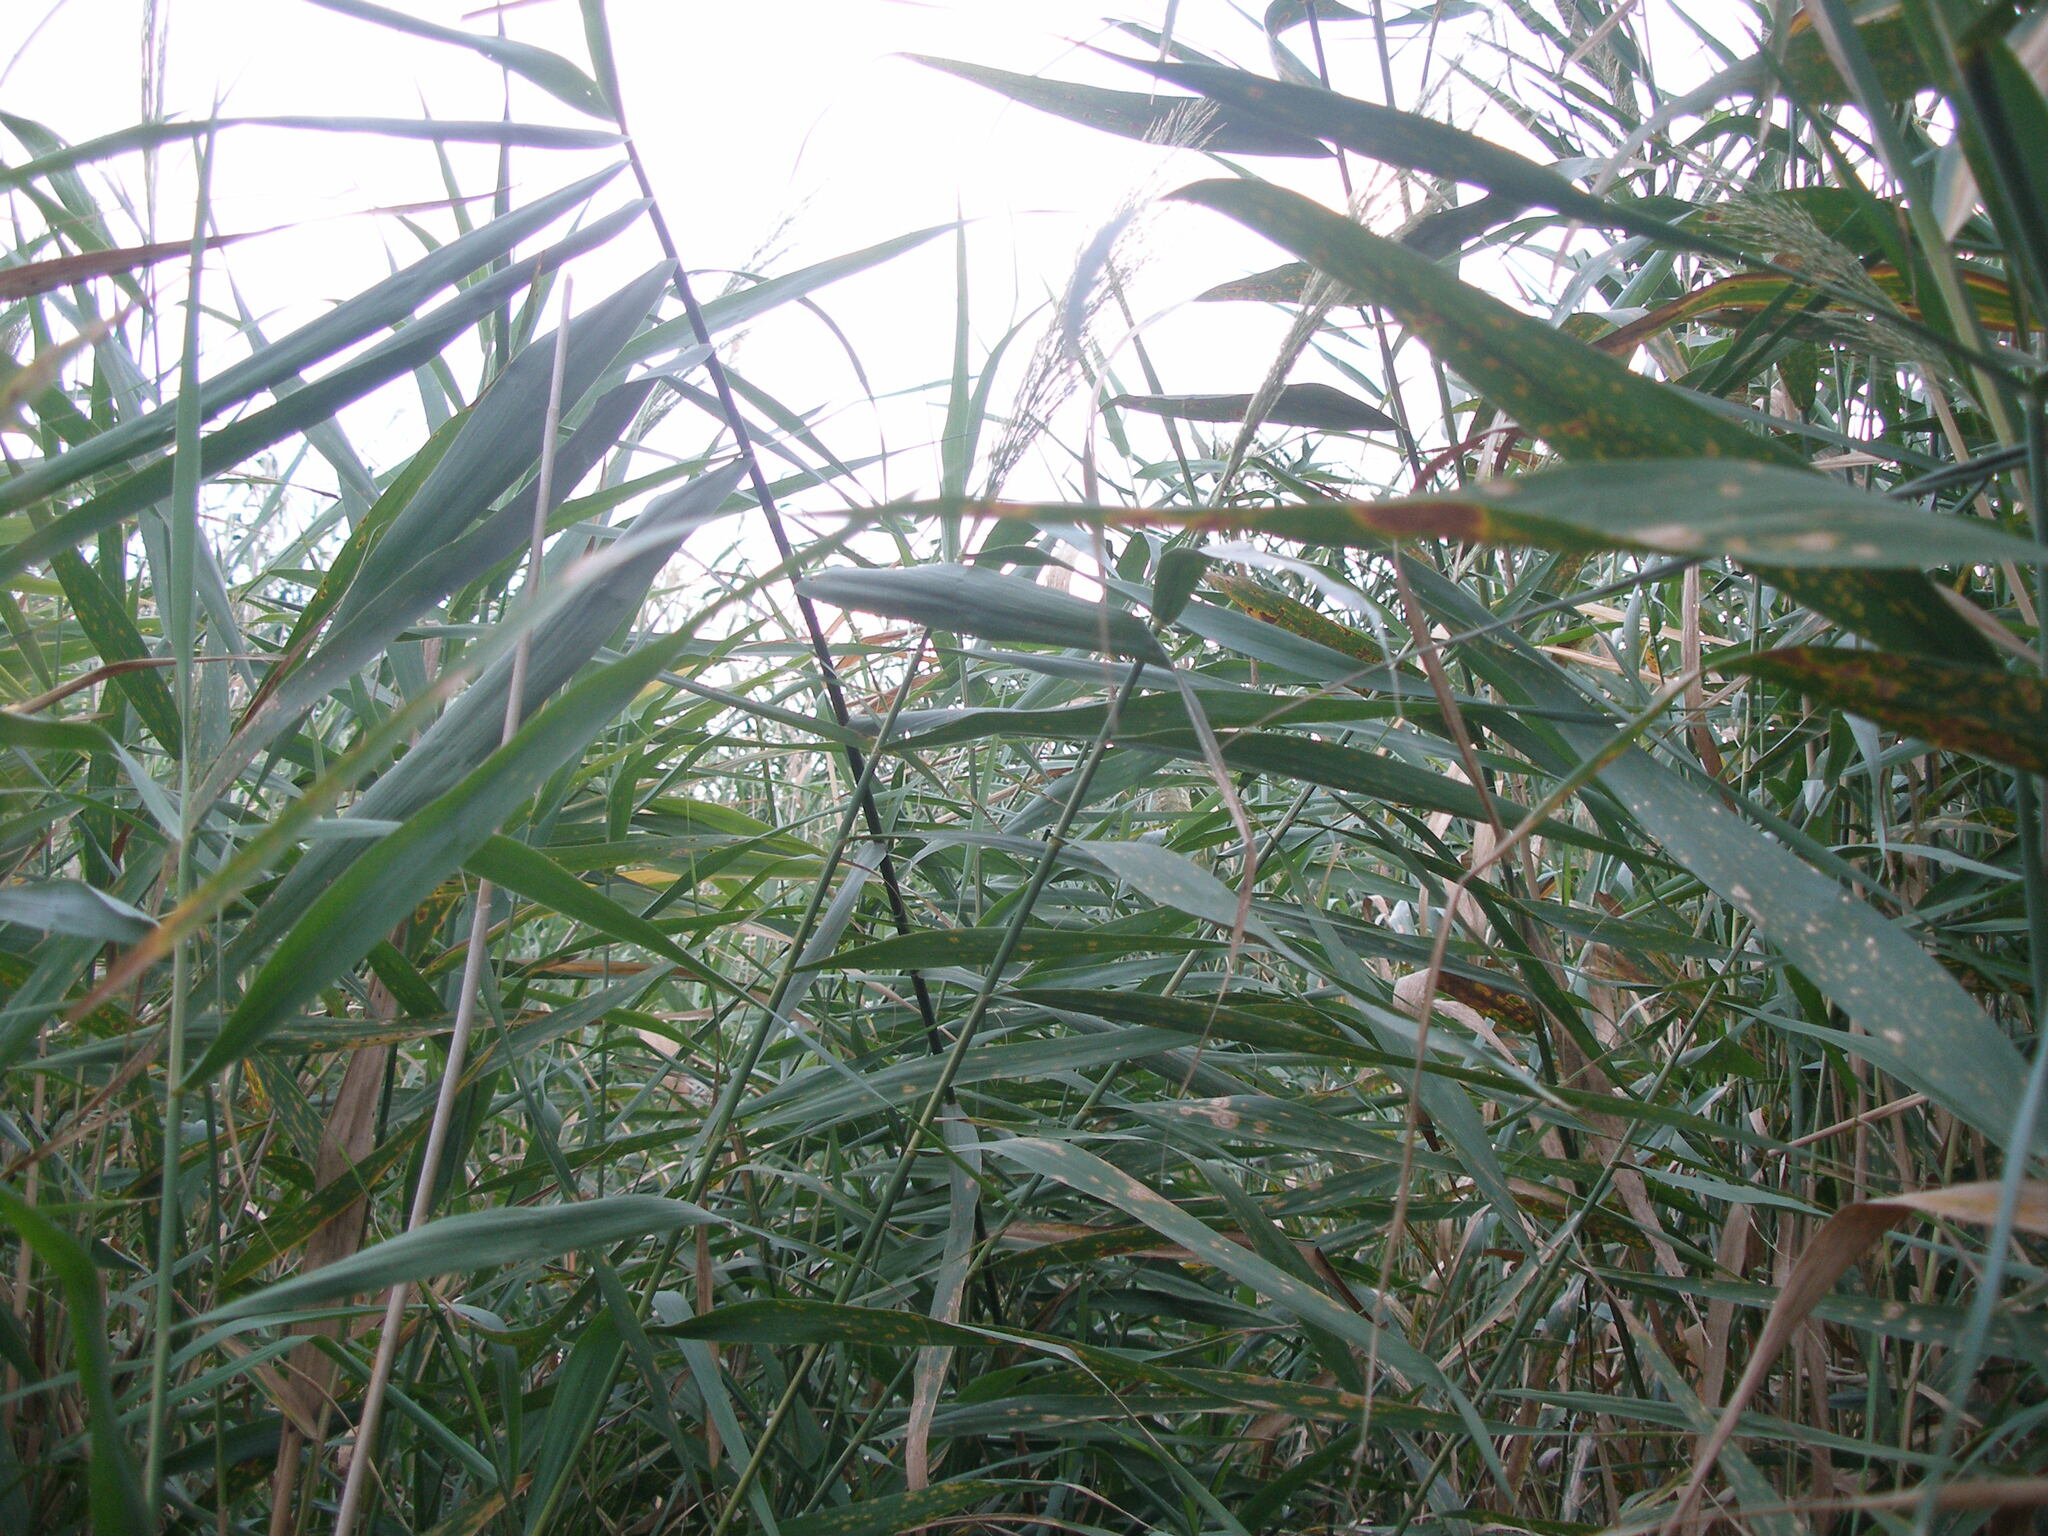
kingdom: Plantae
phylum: Tracheophyta
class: Liliopsida
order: Poales
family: Poaceae
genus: Phragmites
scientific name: Phragmites australis
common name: Common reed
